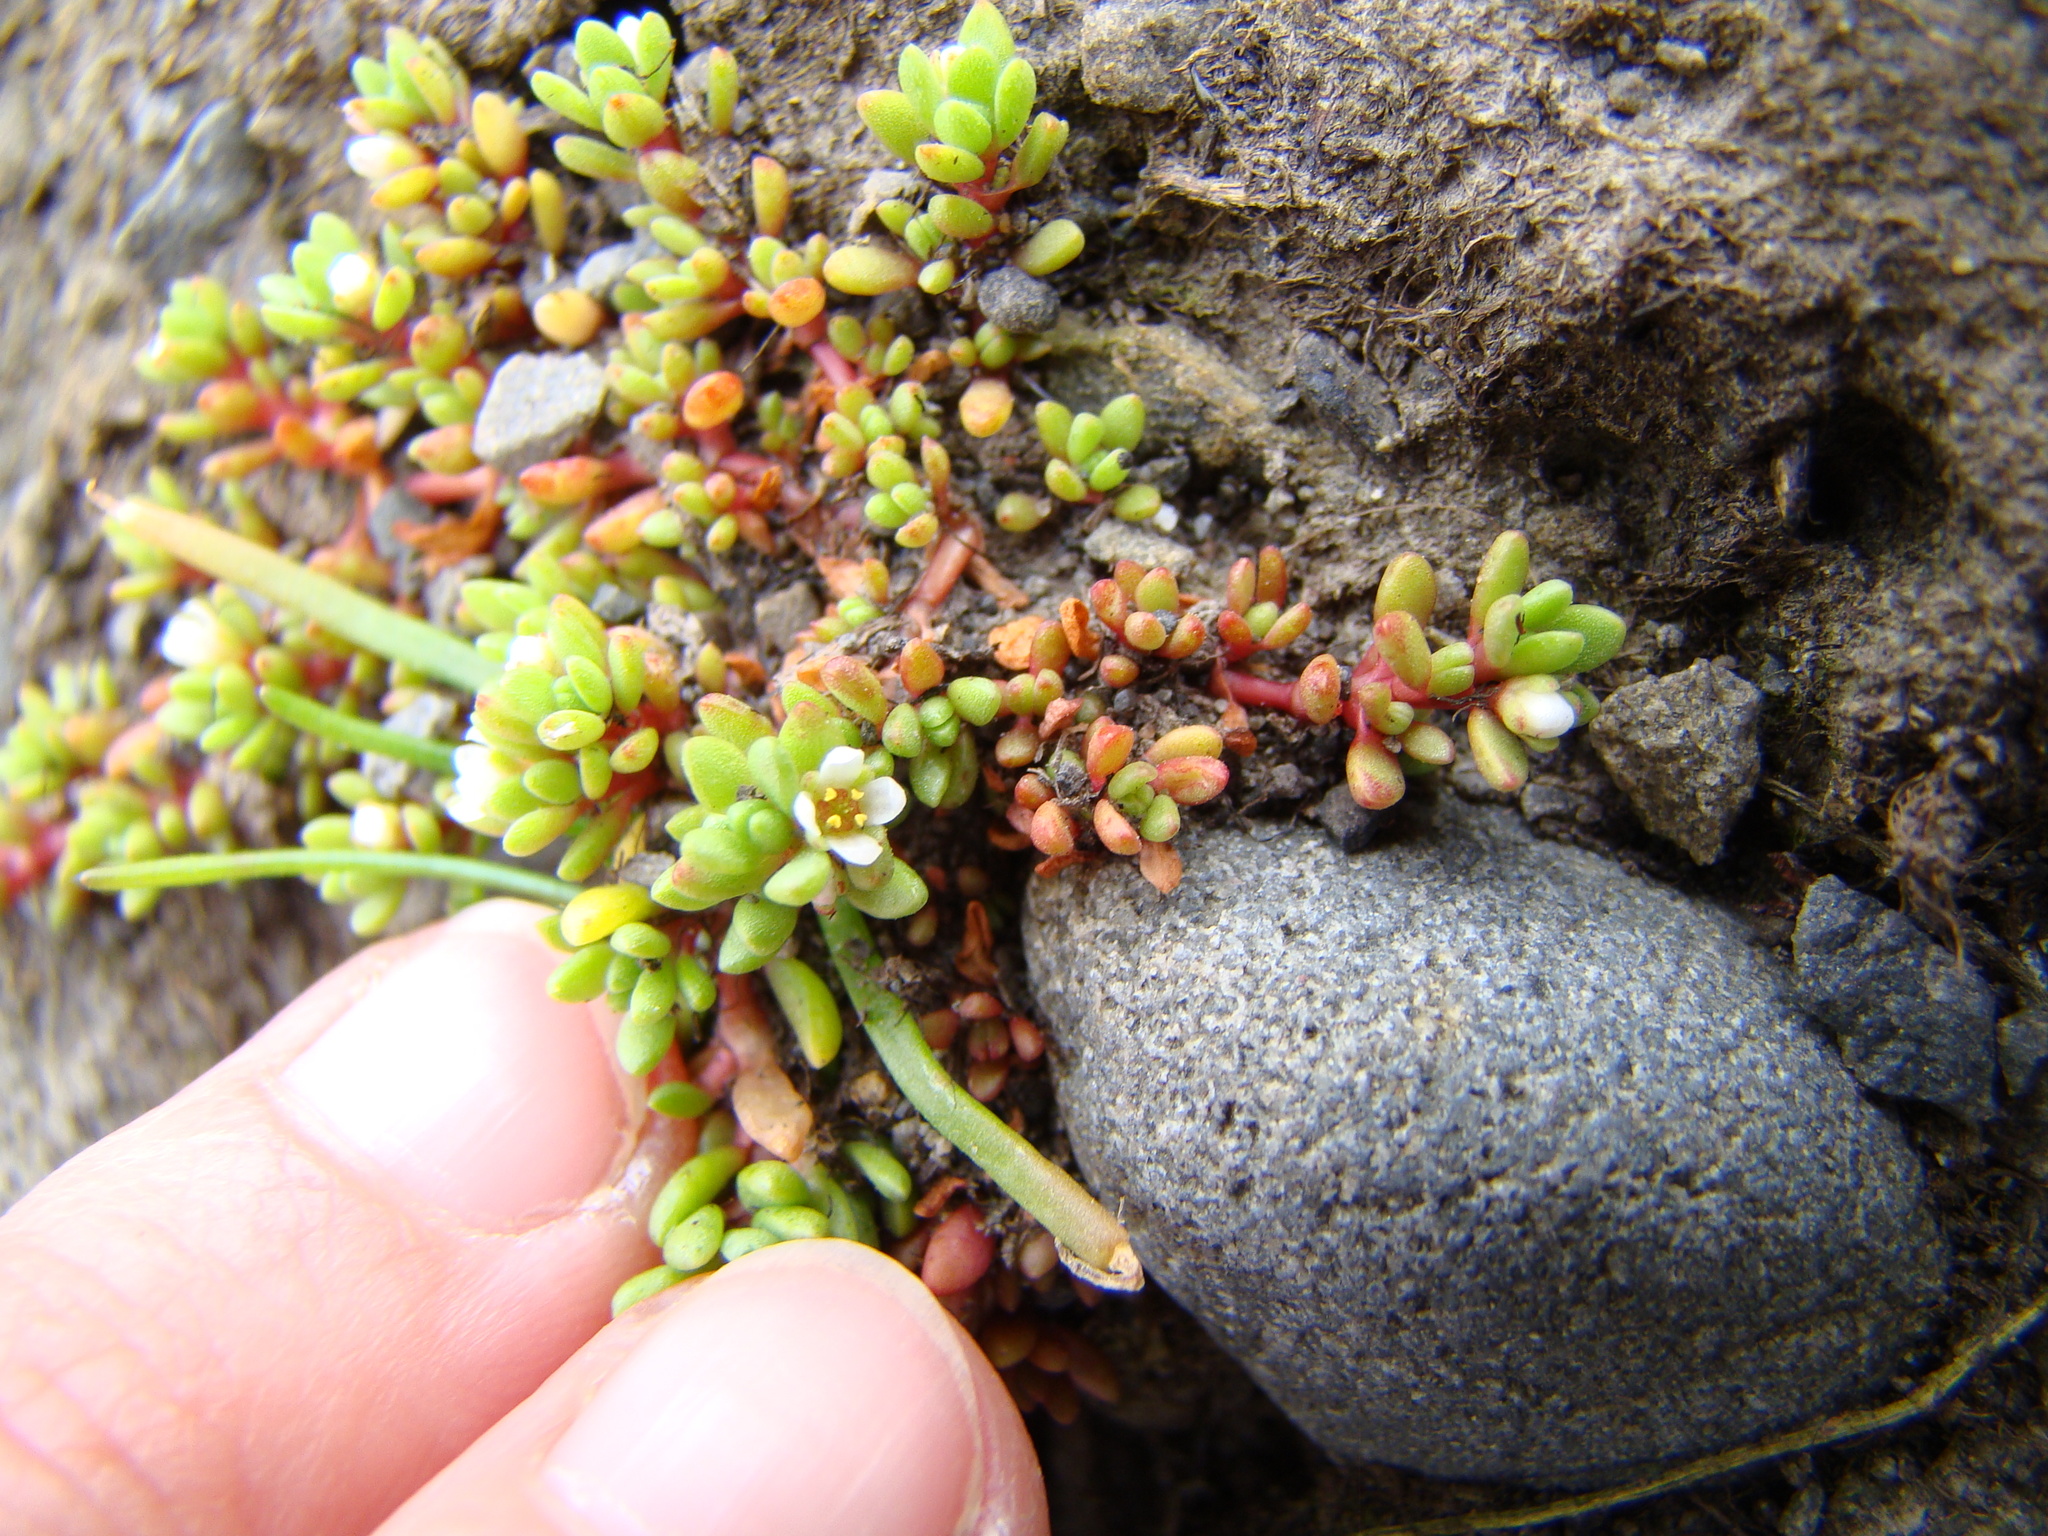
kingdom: Plantae
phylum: Tracheophyta
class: Magnoliopsida
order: Saxifragales
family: Crassulaceae
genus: Crassula
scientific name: Crassula moschata
